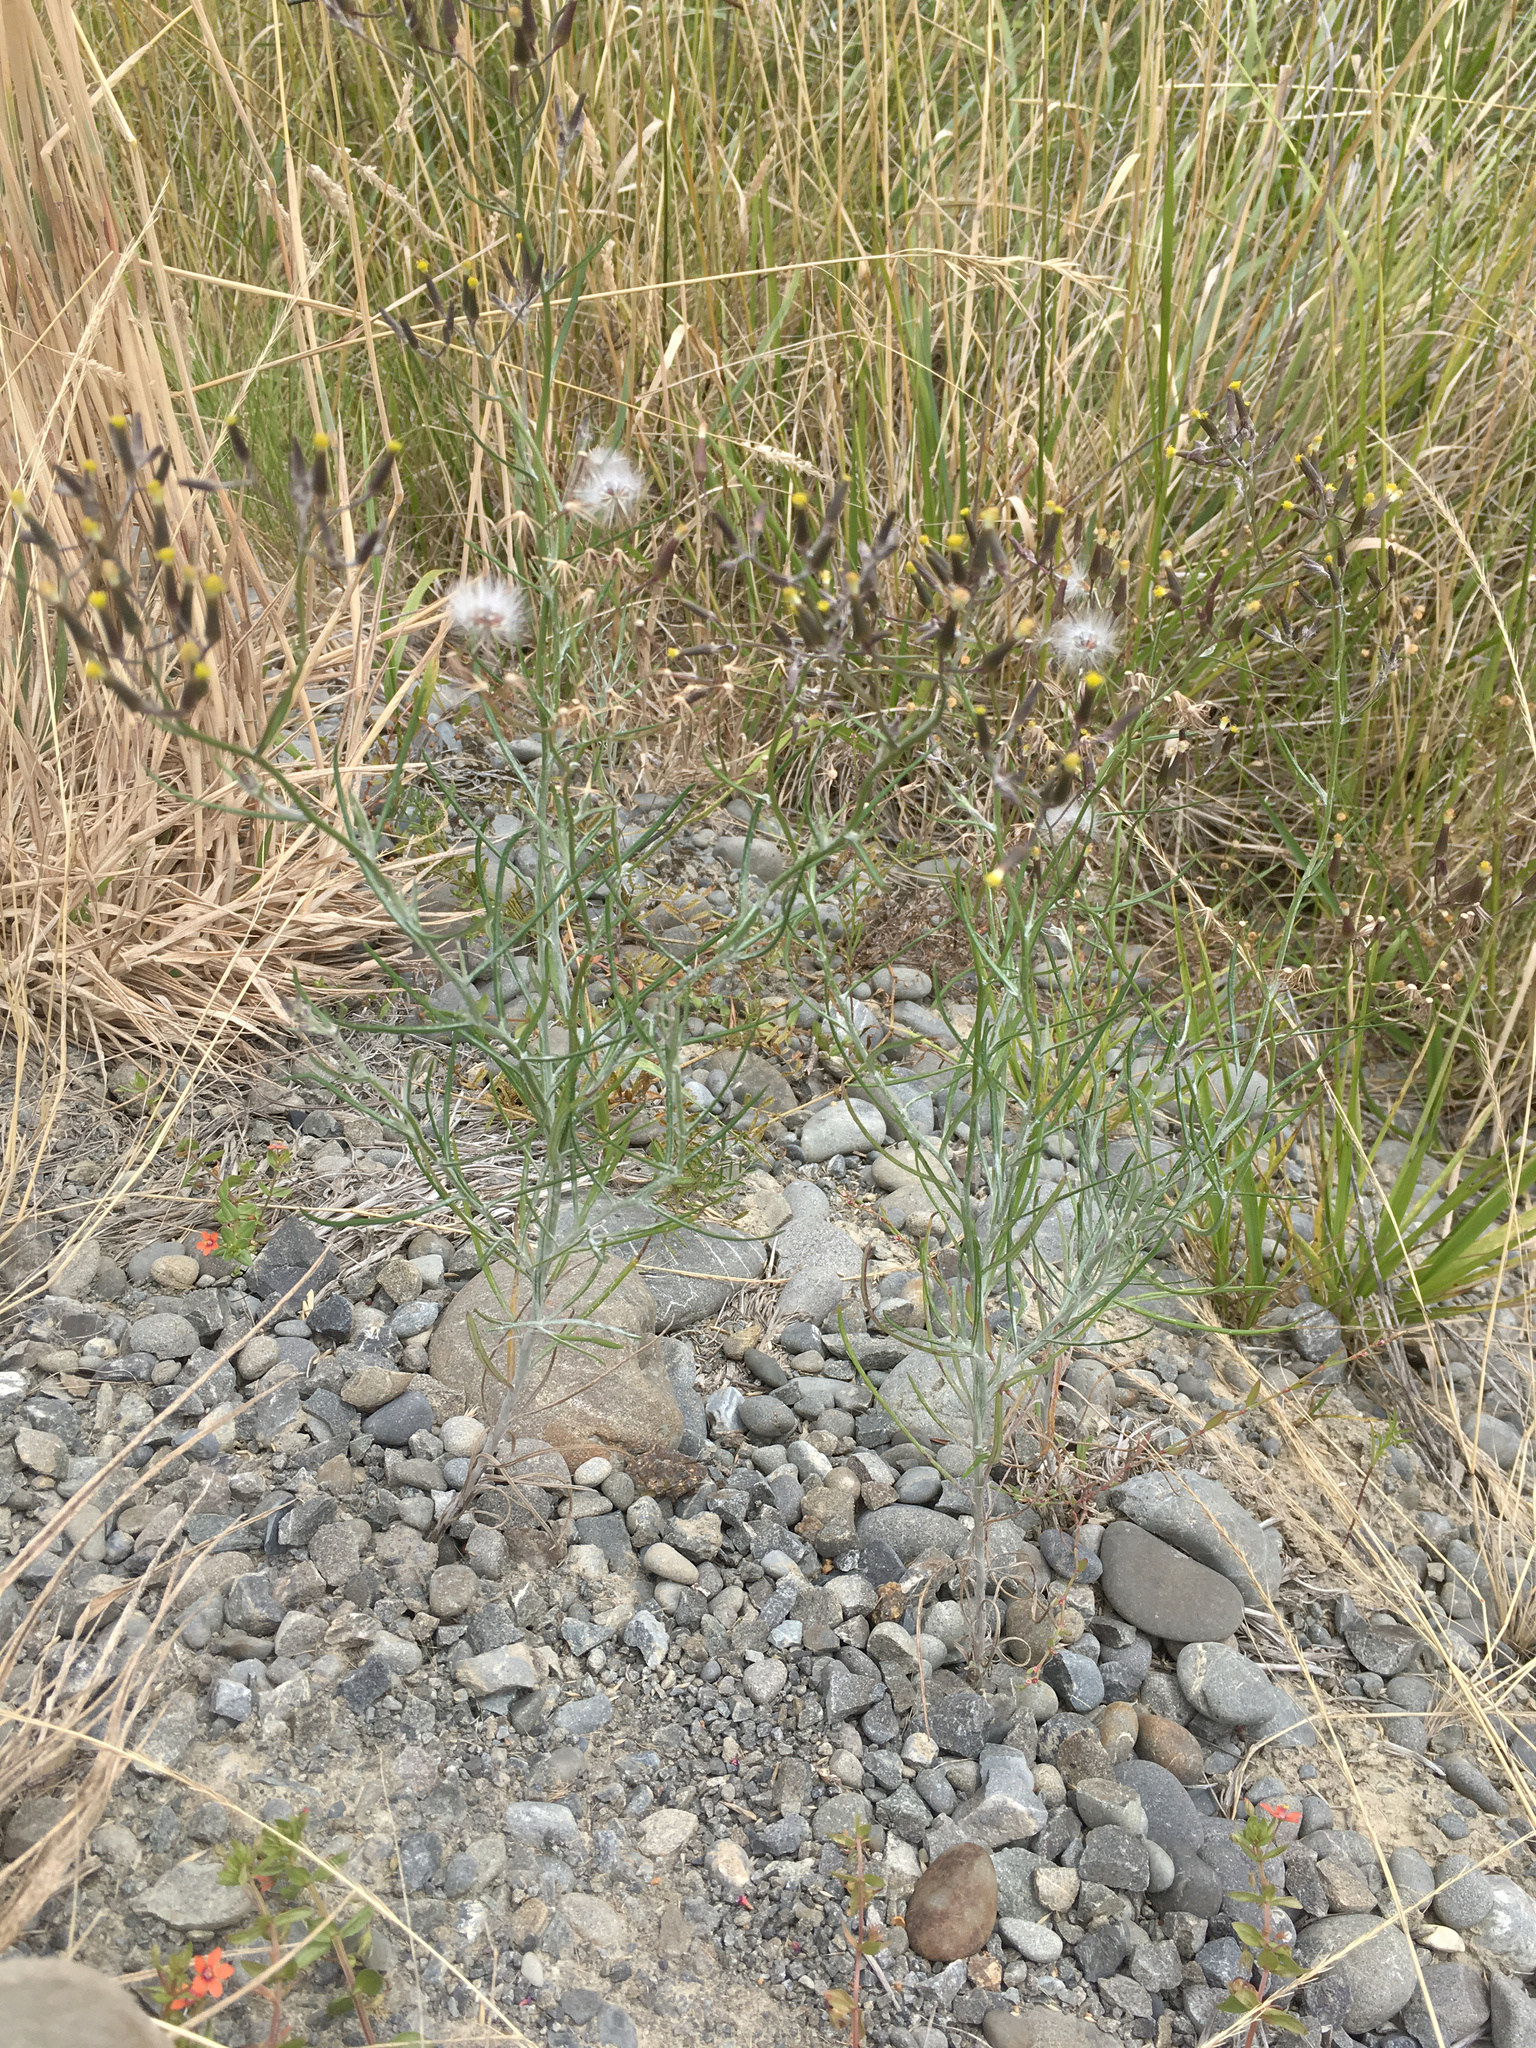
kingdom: Plantae
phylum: Tracheophyta
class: Magnoliopsida
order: Asterales
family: Asteraceae
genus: Senecio
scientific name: Senecio quadridentatus
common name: Cotton fireweed
